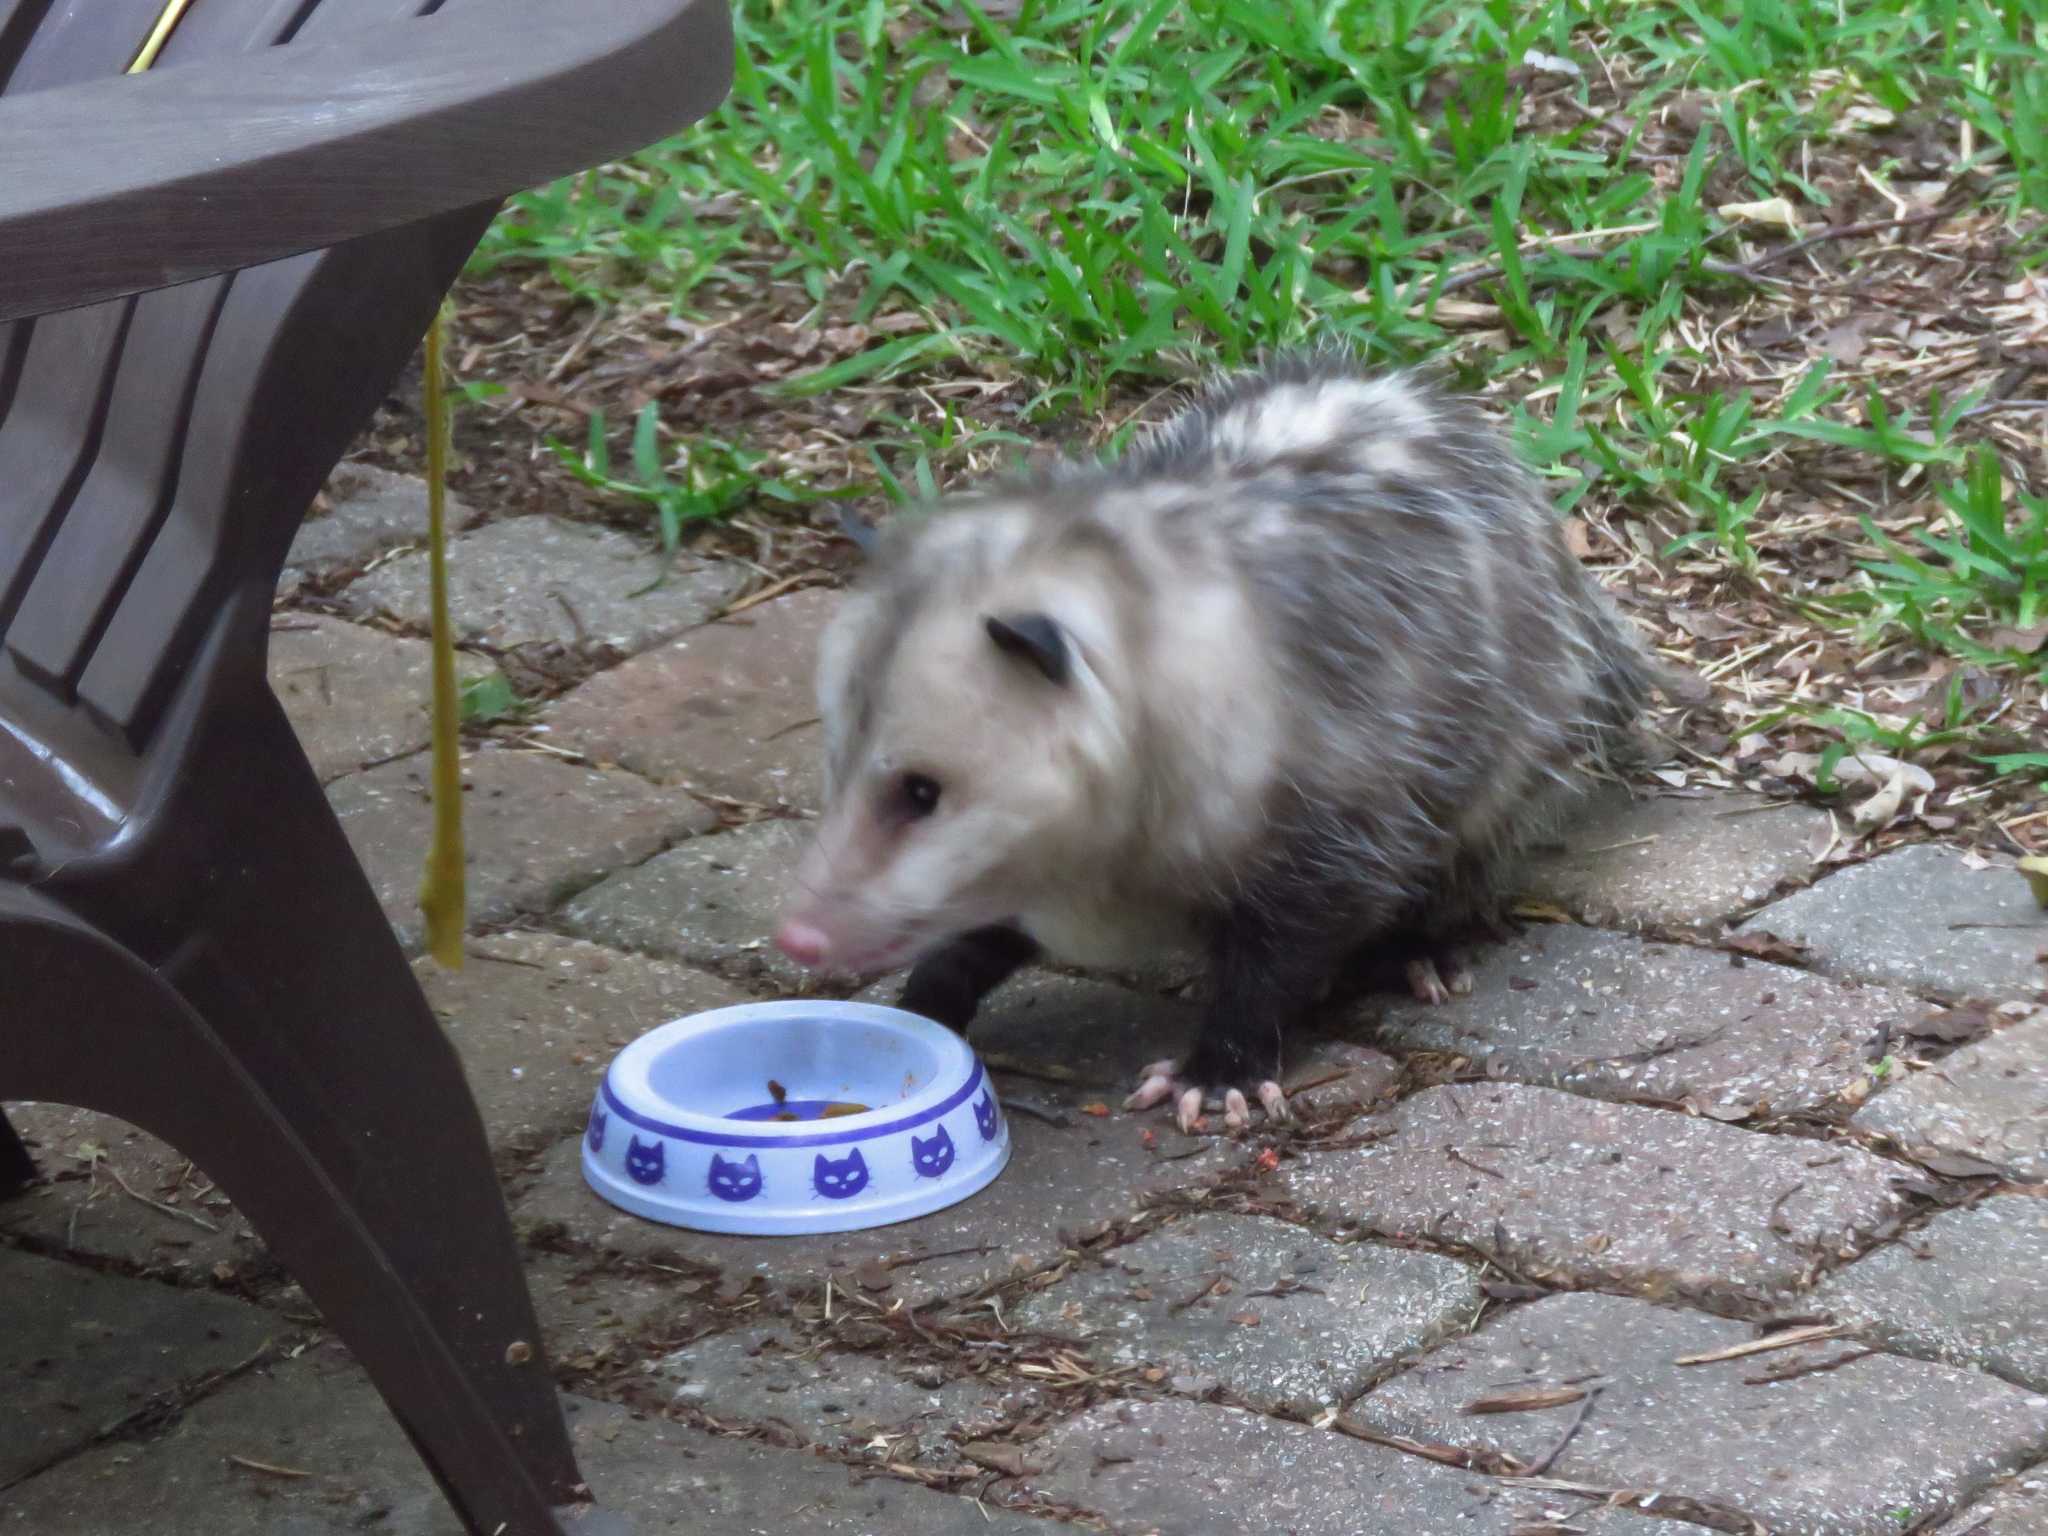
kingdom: Animalia
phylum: Chordata
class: Mammalia
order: Didelphimorphia
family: Didelphidae
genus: Didelphis
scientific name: Didelphis virginiana
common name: Virginia opossum
